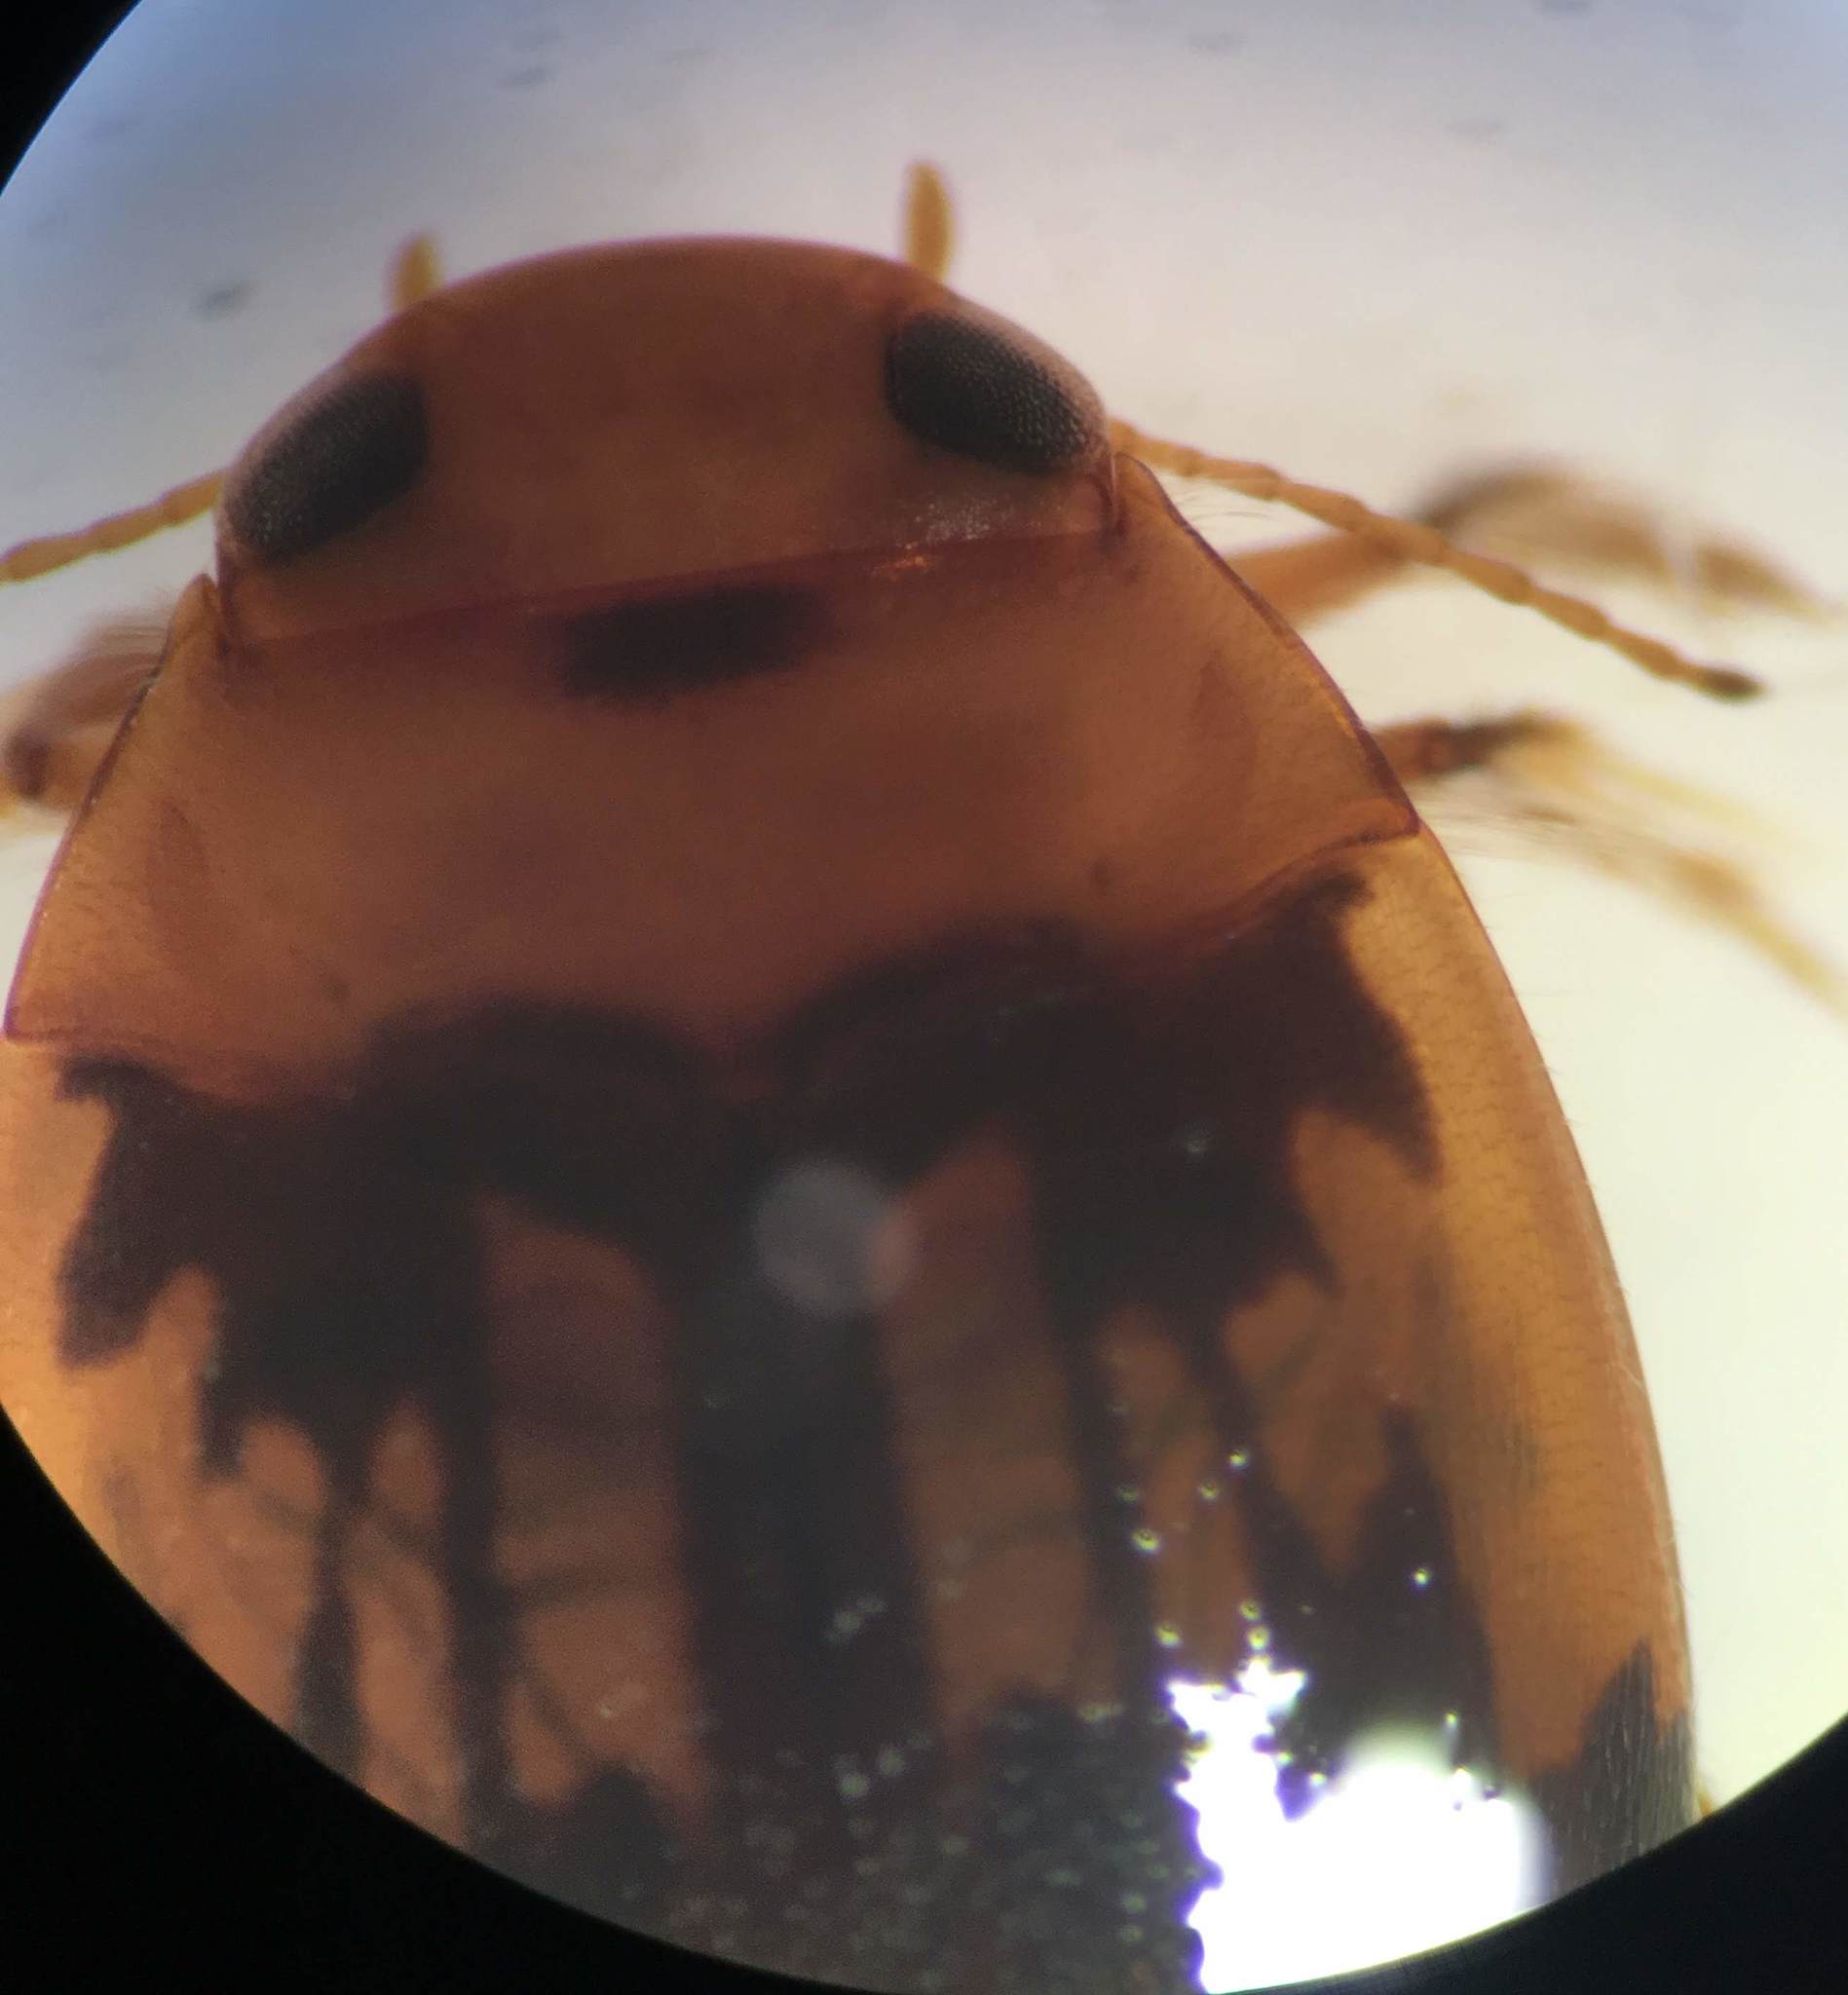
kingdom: Animalia
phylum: Arthropoda
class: Insecta
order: Coleoptera
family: Dytiscidae
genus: Neoporus
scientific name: Neoporus clypealis
